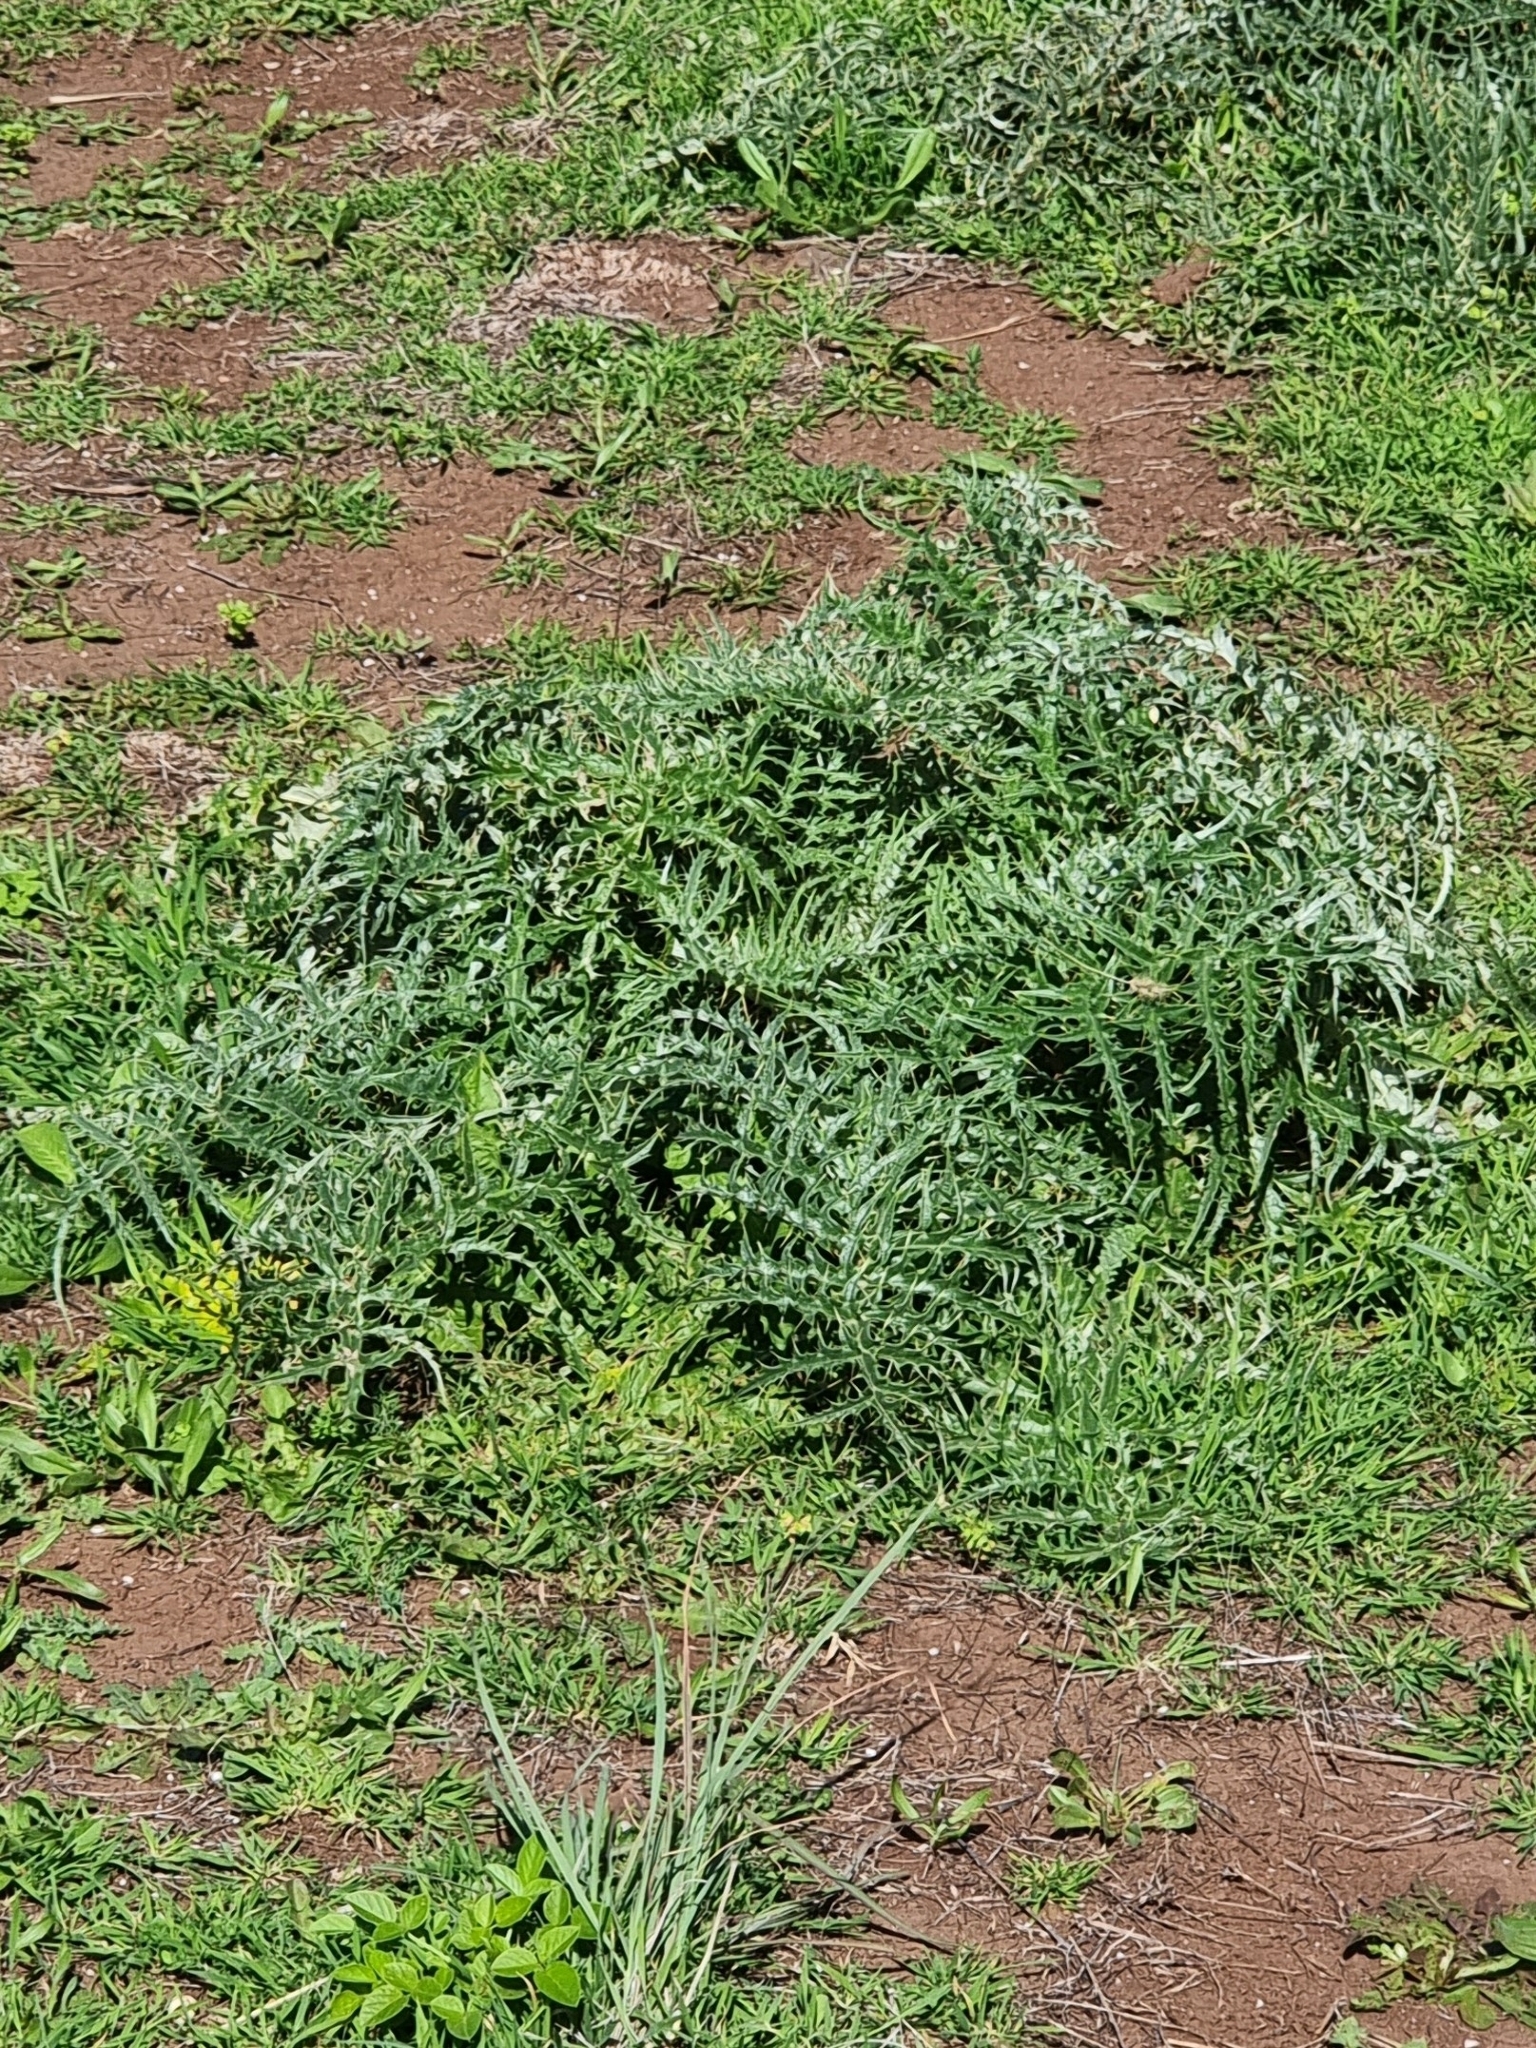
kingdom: Plantae
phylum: Tracheophyta
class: Magnoliopsida
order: Asterales
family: Asteraceae
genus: Cynara
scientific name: Cynara cardunculus
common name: Globe artichoke
